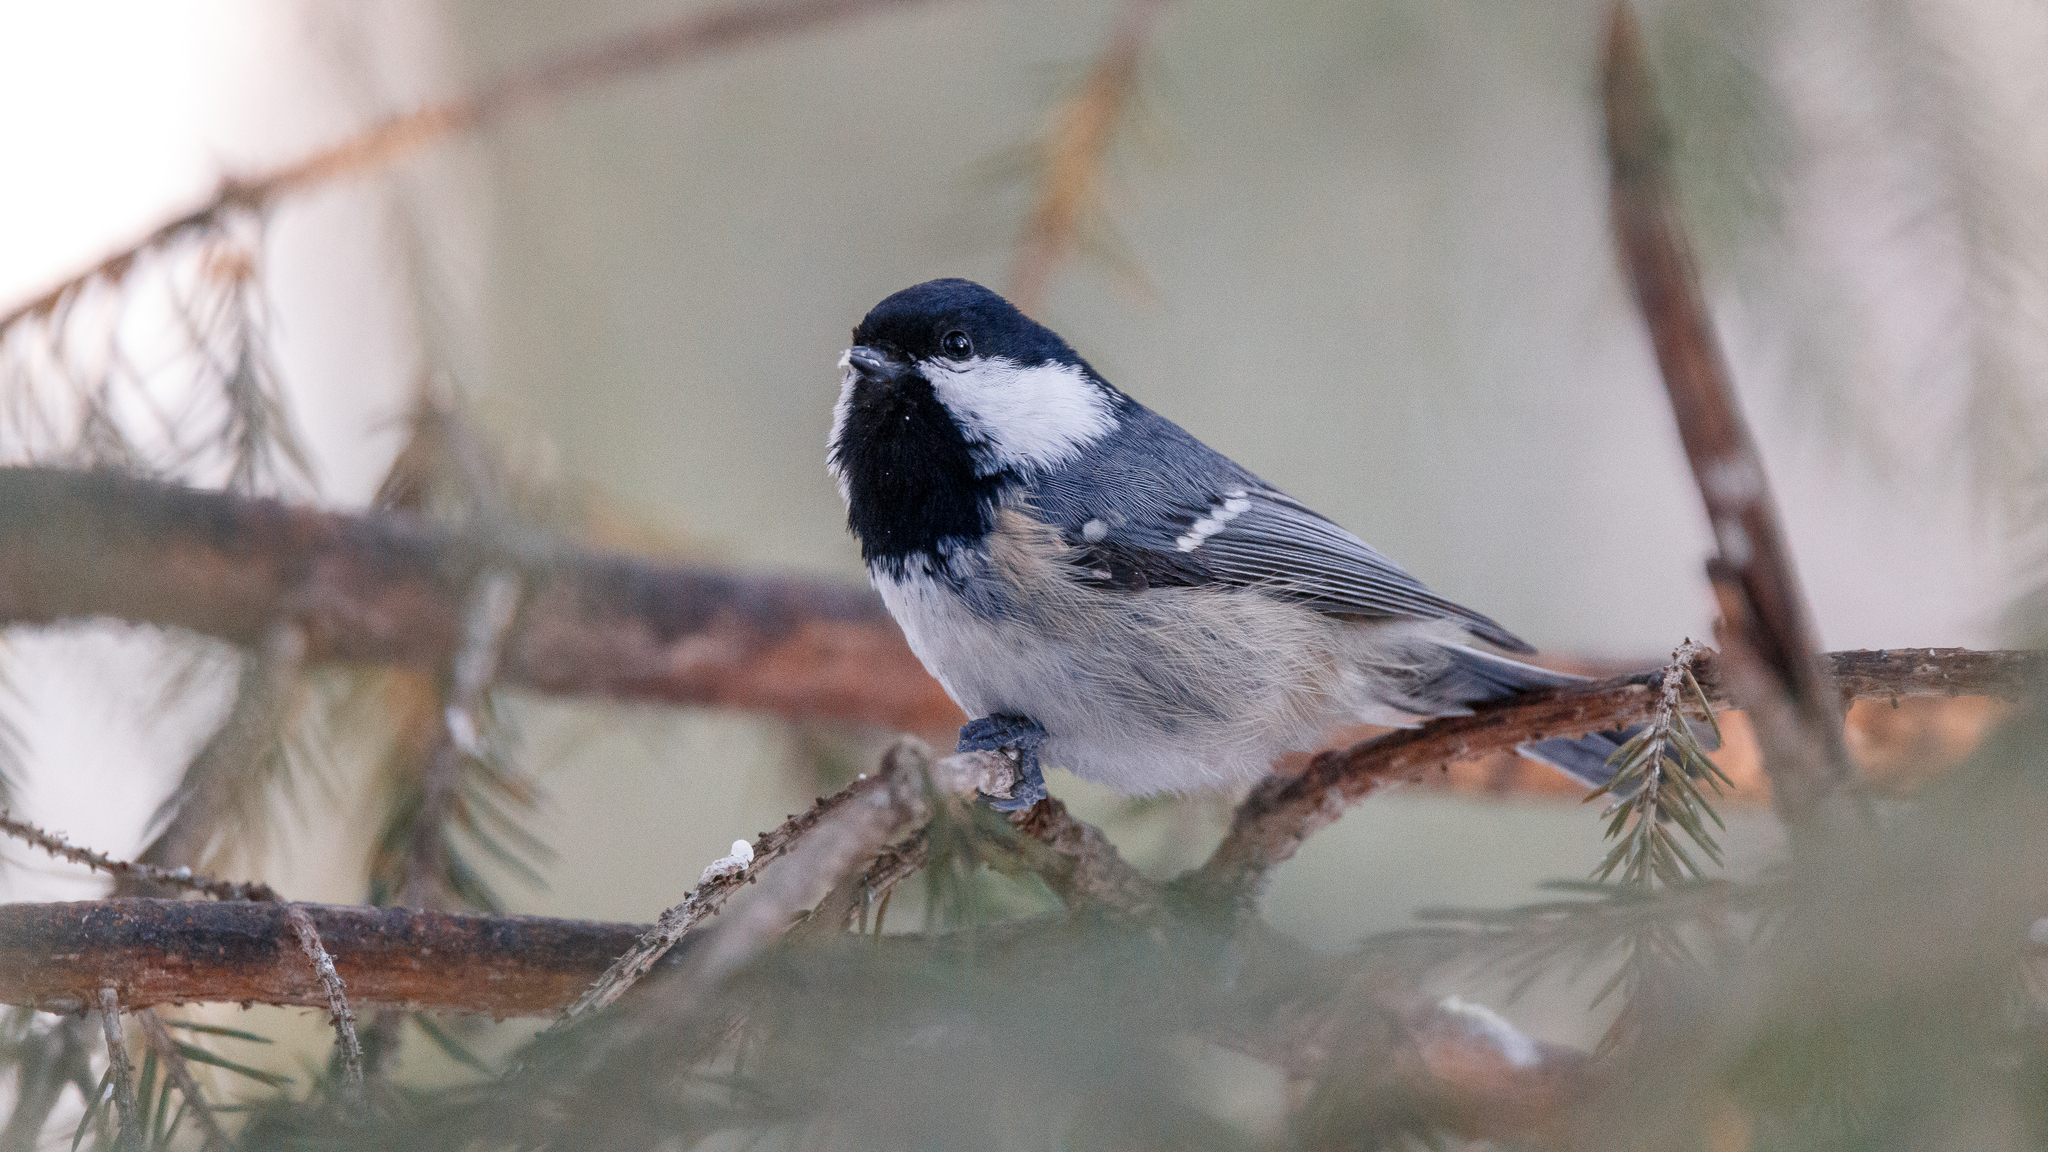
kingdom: Animalia
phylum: Chordata
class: Aves
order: Passeriformes
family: Paridae
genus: Periparus
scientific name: Periparus ater
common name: Coal tit
